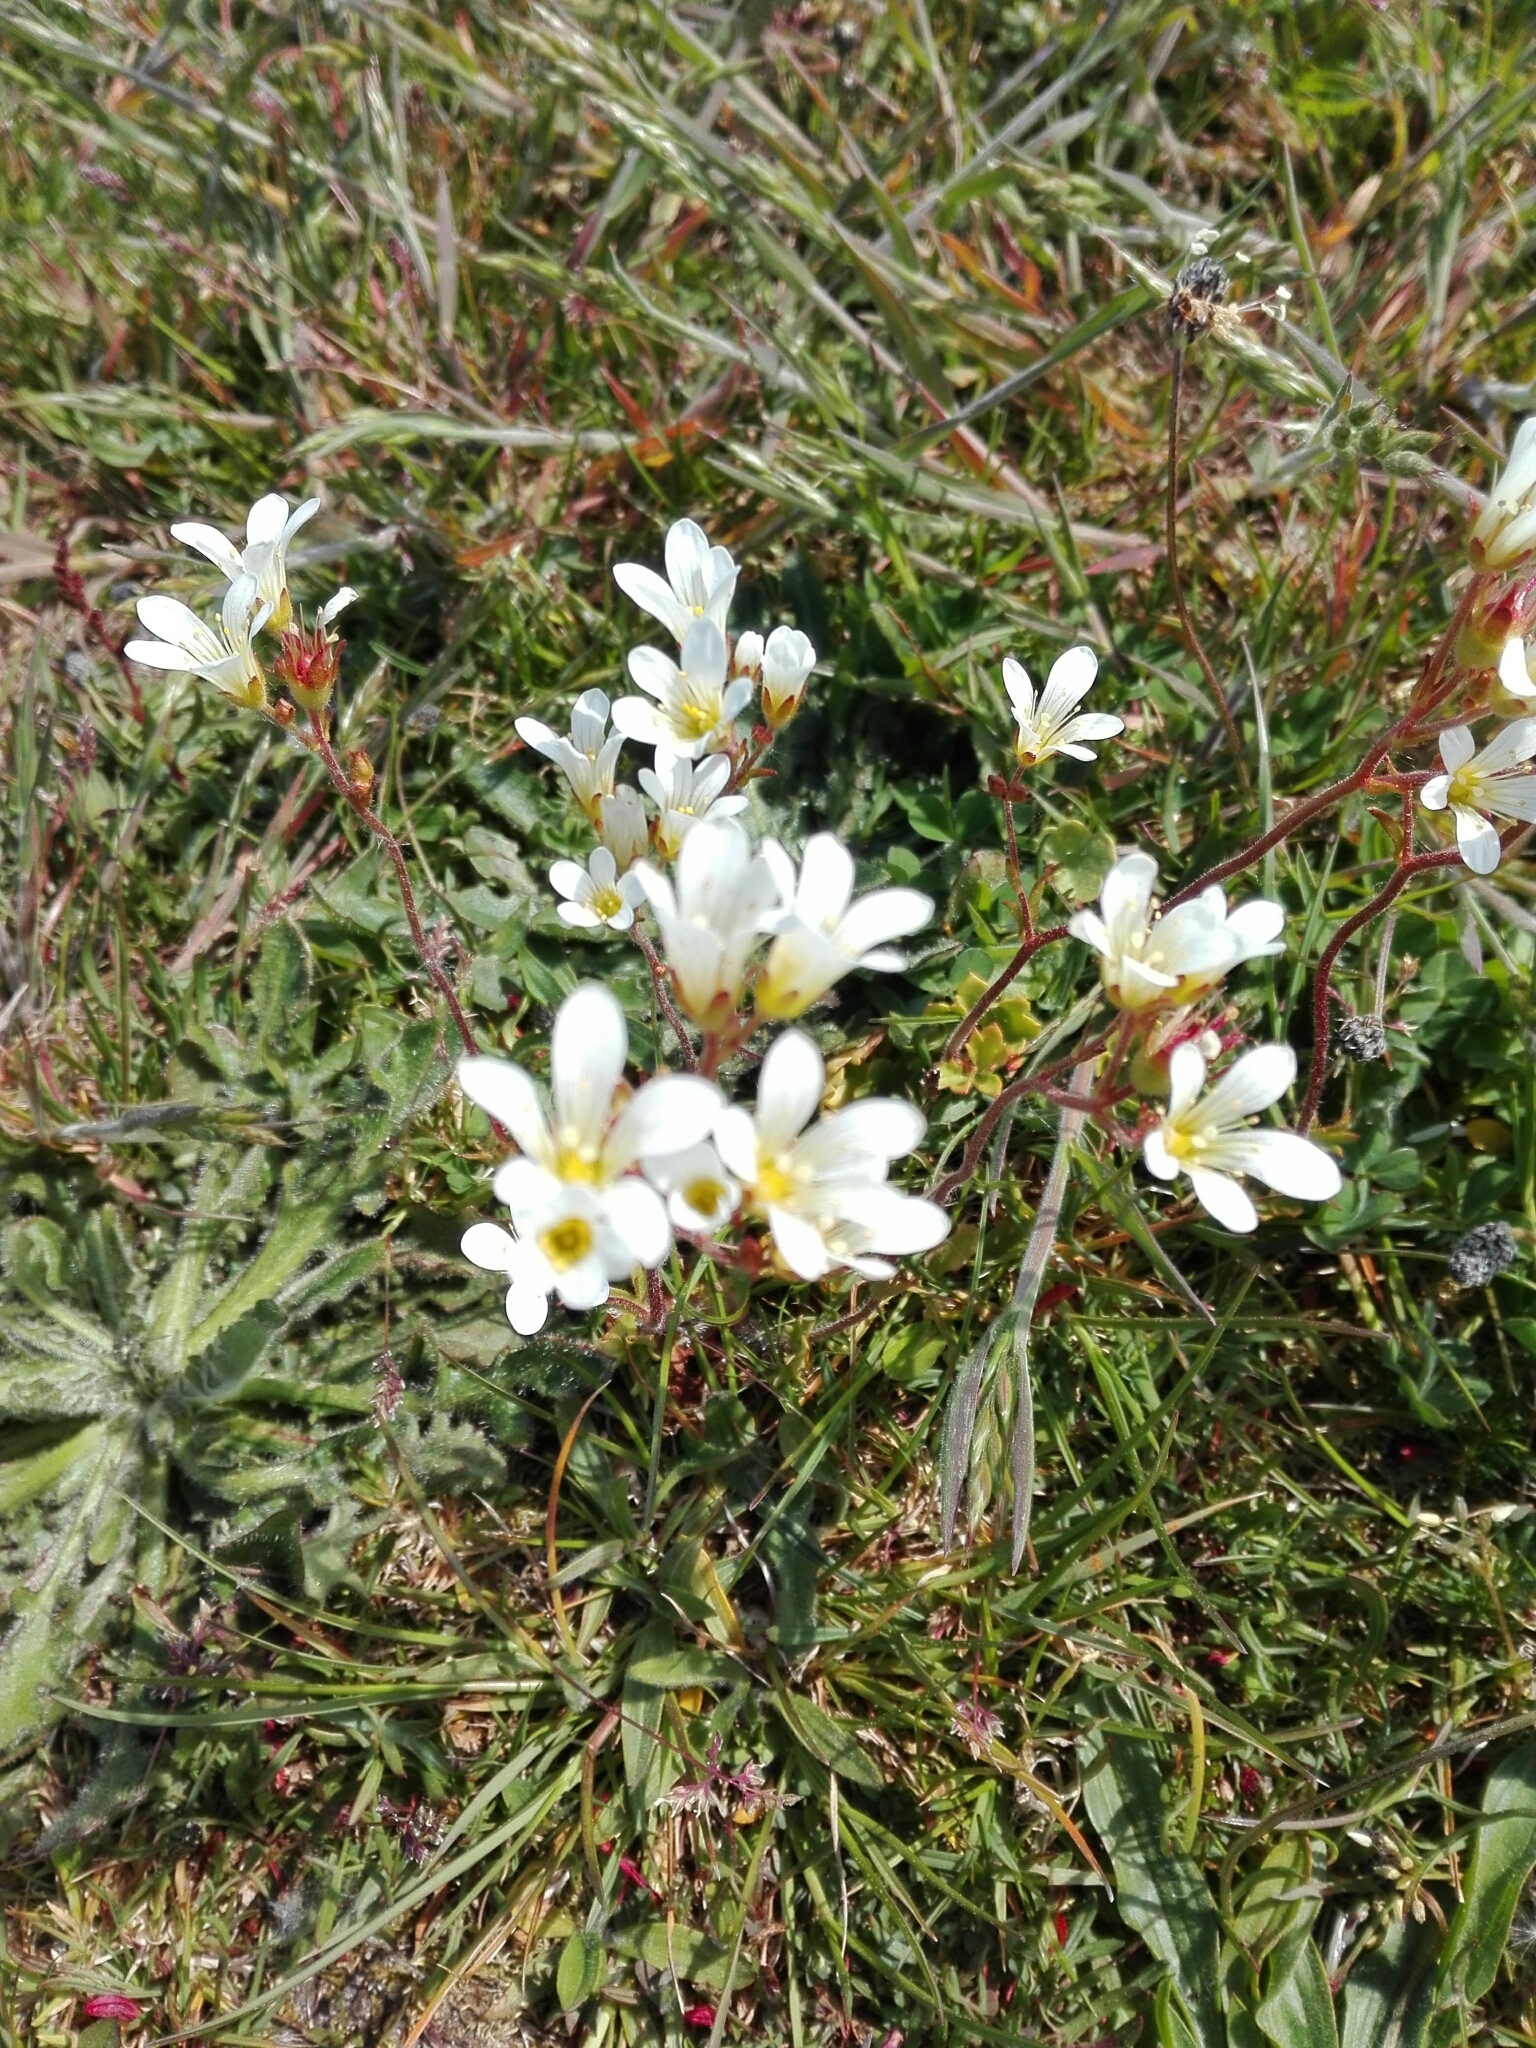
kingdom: Plantae
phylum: Tracheophyta
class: Magnoliopsida
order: Saxifragales
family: Saxifragaceae
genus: Saxifraga
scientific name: Saxifraga granulata
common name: Meadow saxifrage
